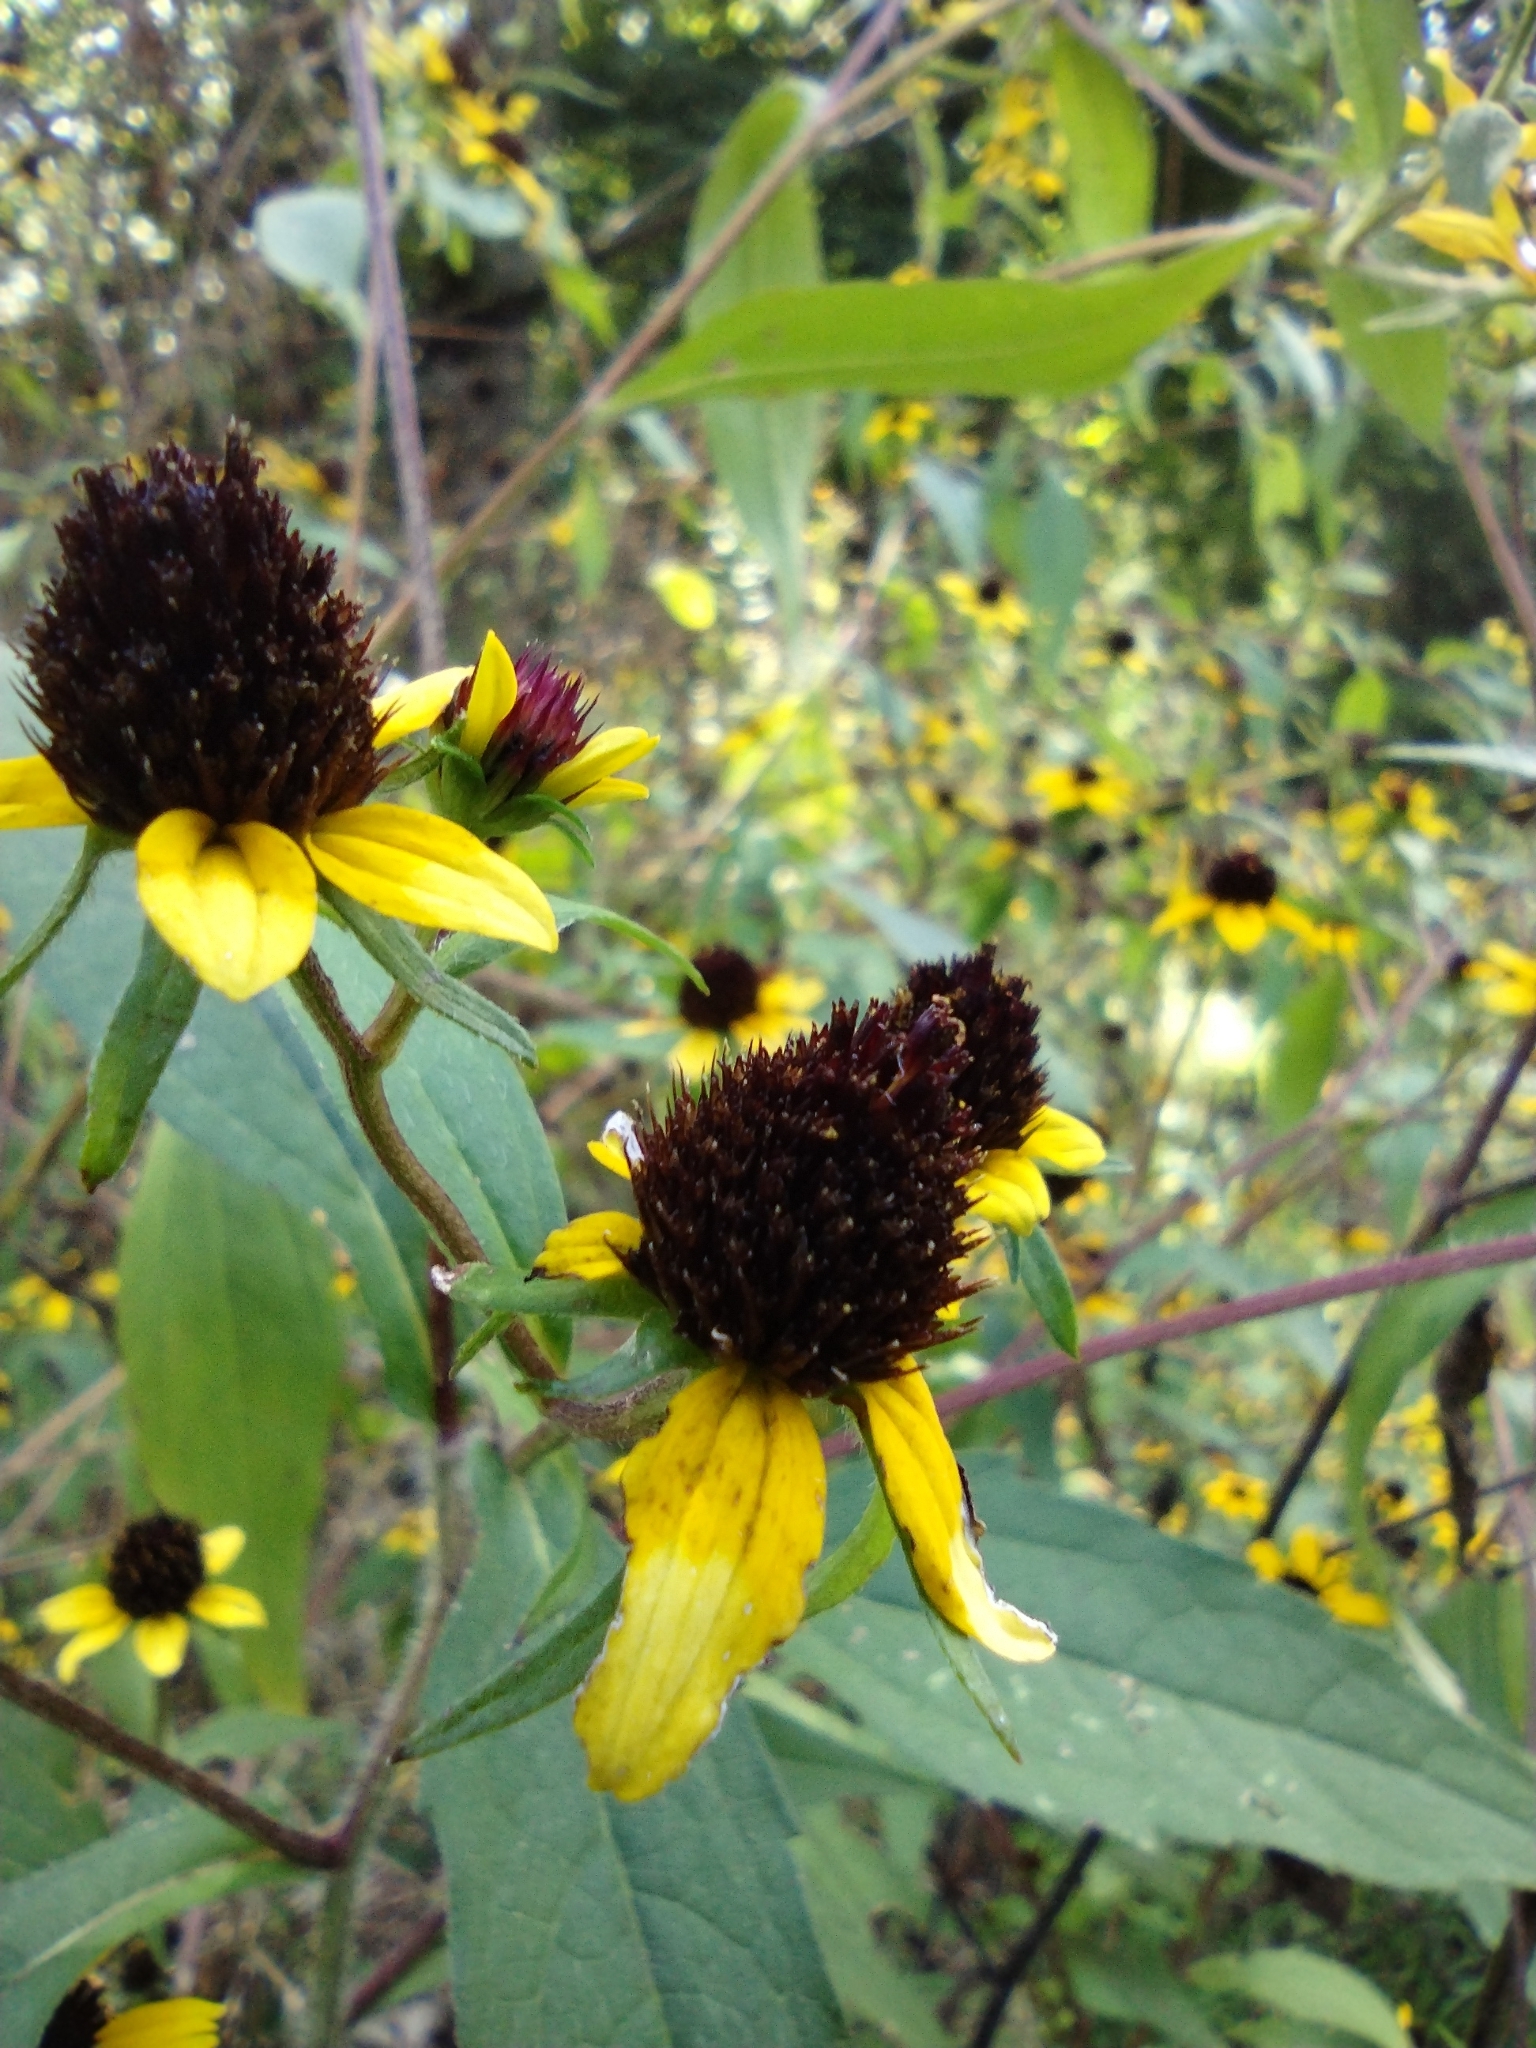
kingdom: Plantae
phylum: Tracheophyta
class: Magnoliopsida
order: Asterales
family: Asteraceae
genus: Rudbeckia
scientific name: Rudbeckia triloba
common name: Thin-leaved coneflower
